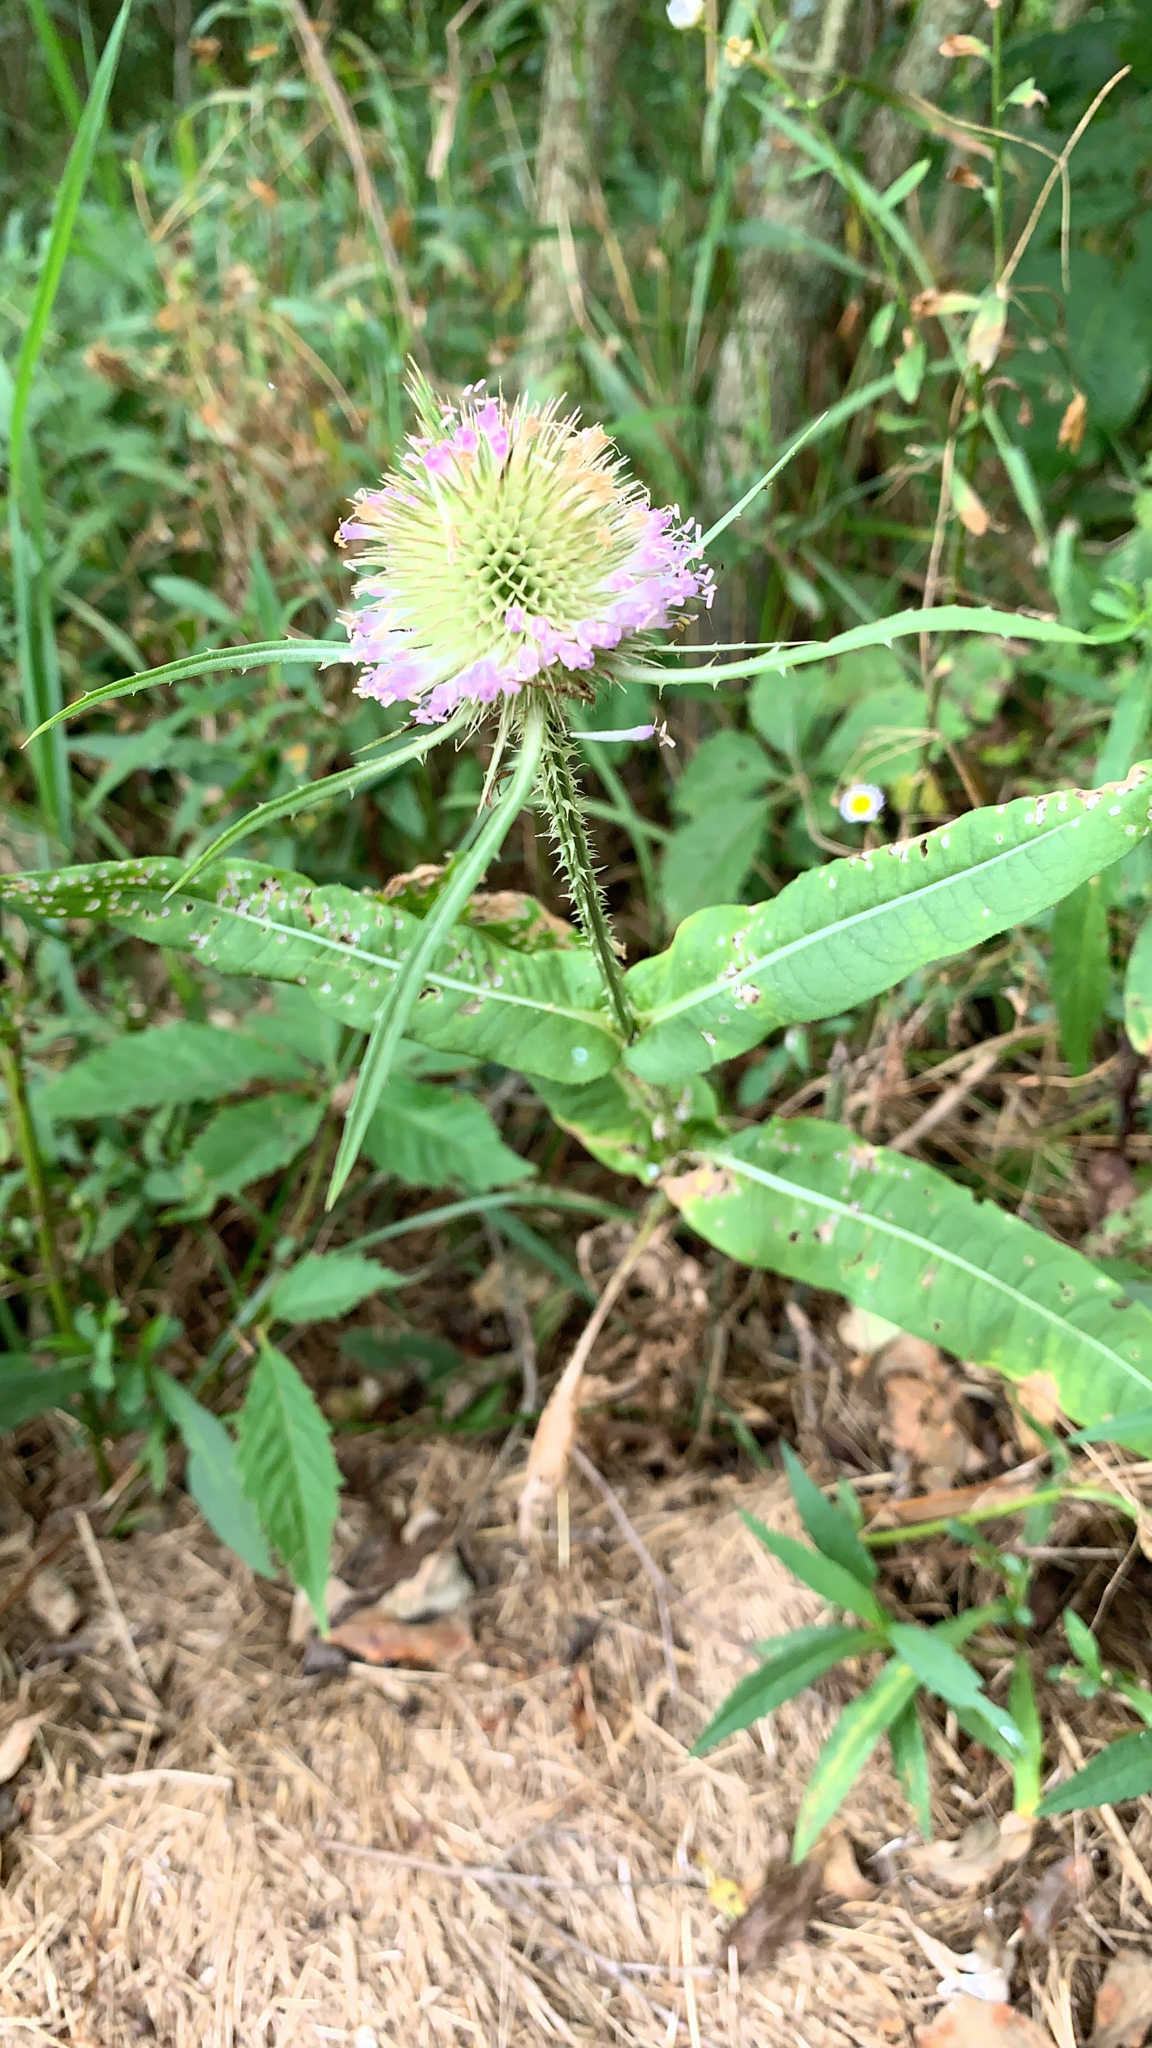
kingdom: Plantae
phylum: Tracheophyta
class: Magnoliopsida
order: Dipsacales
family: Caprifoliaceae
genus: Dipsacus
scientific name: Dipsacus fullonum
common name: Teasel
